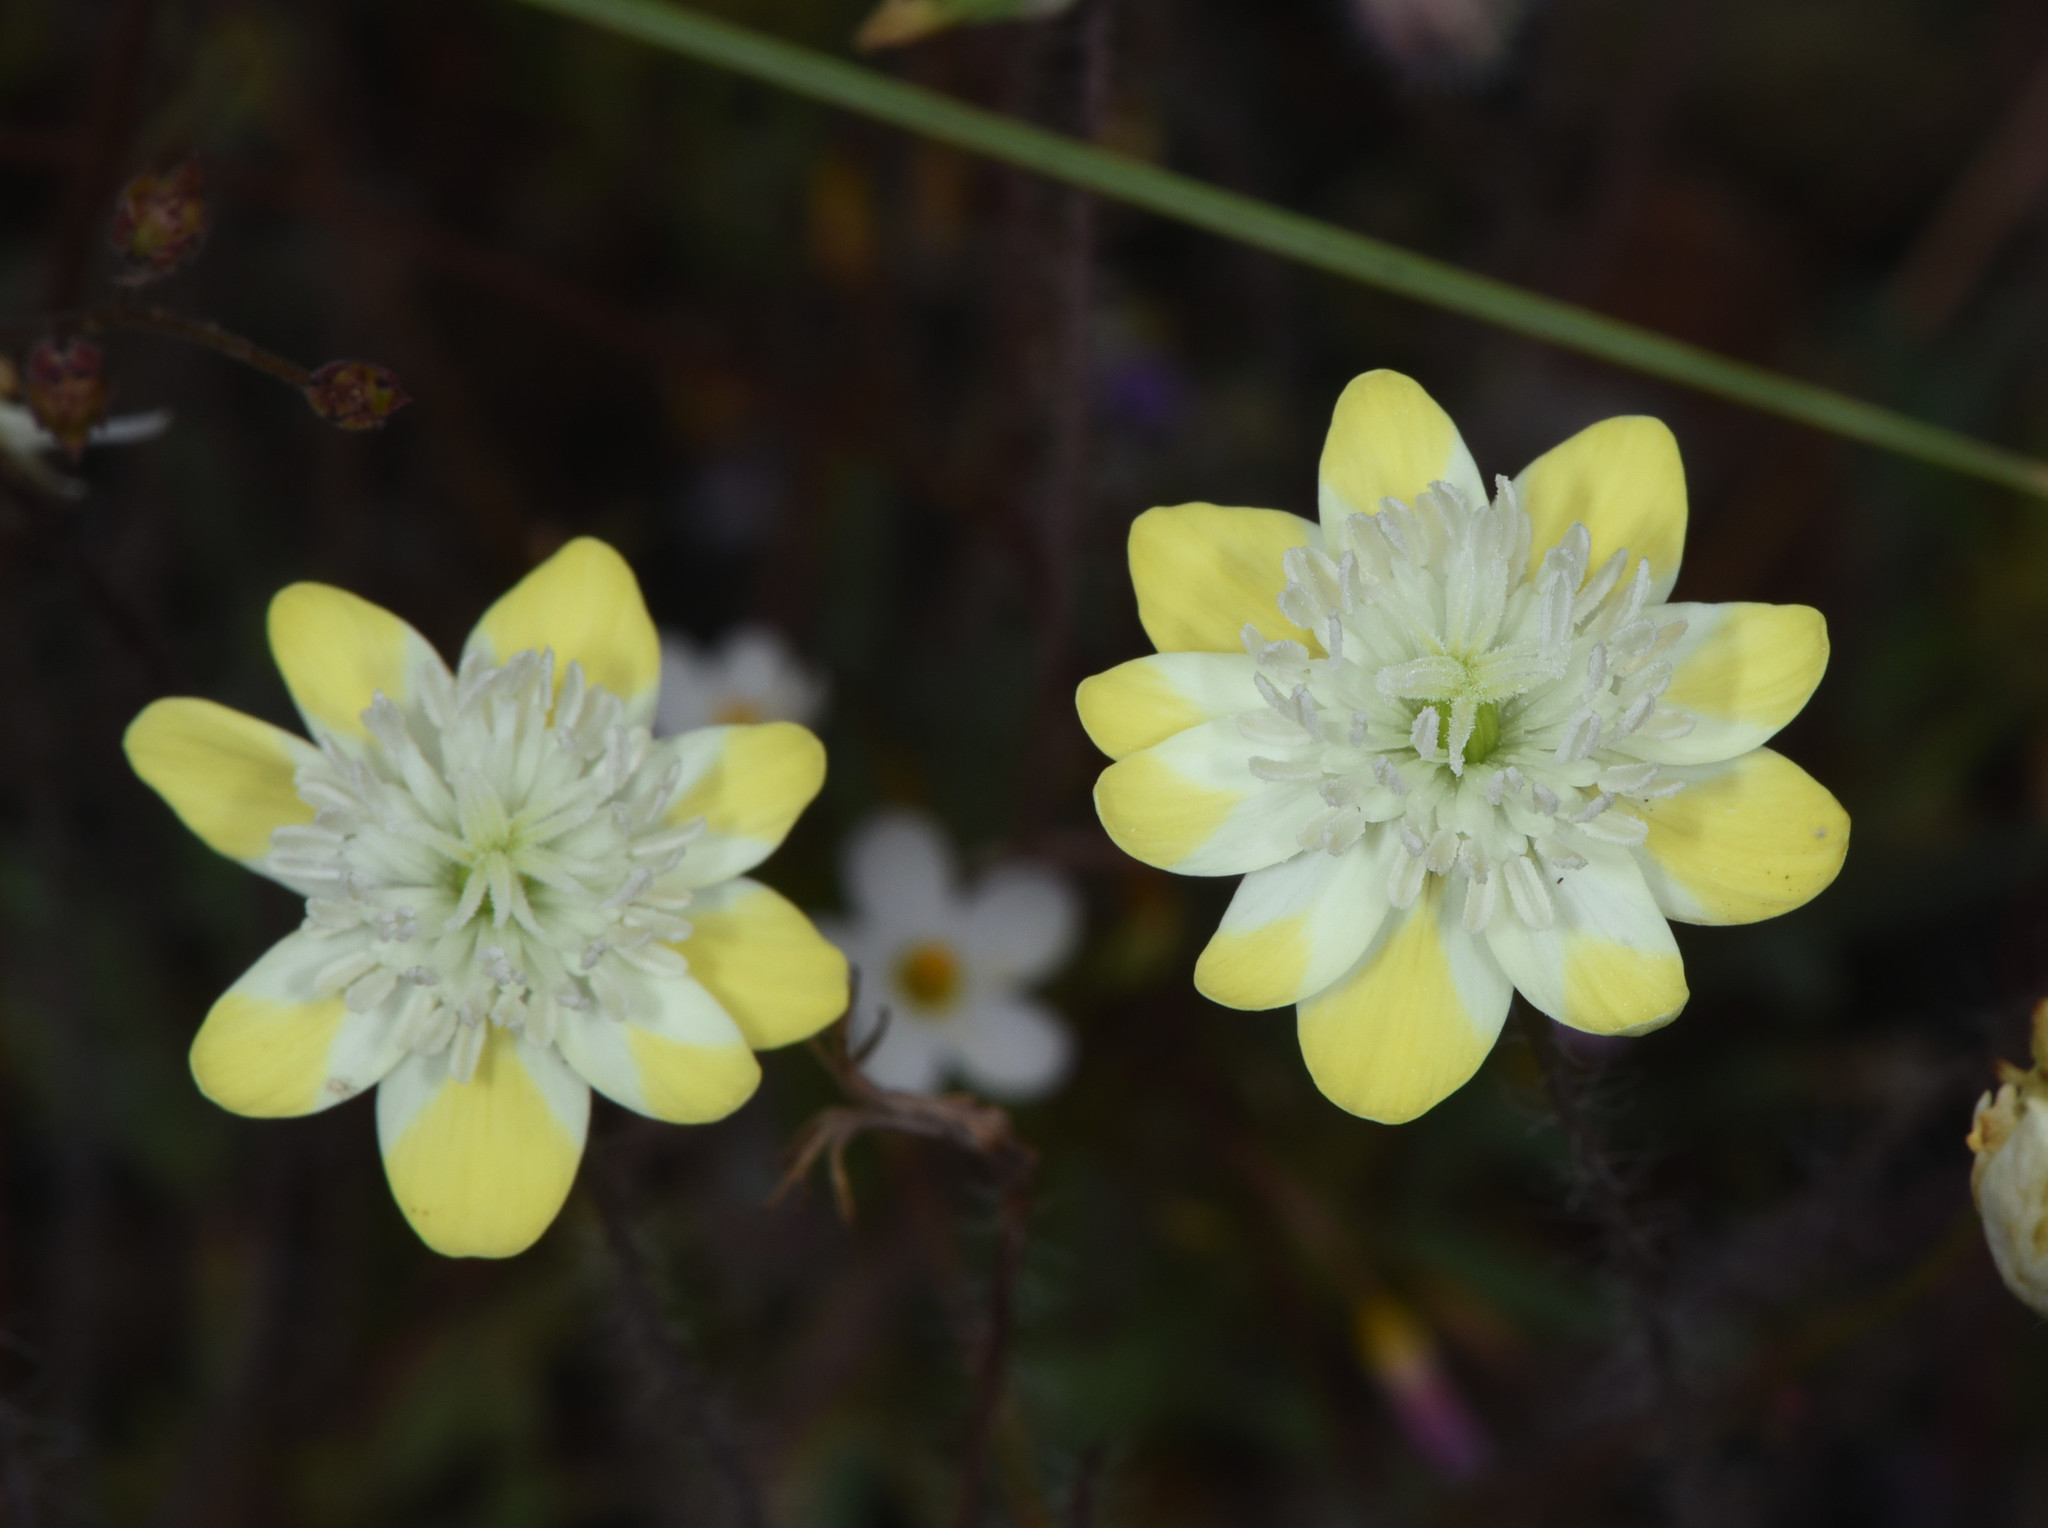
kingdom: Plantae
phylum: Tracheophyta
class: Magnoliopsida
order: Ranunculales
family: Papaveraceae
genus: Platystemon
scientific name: Platystemon californicus
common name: Cream-cups
